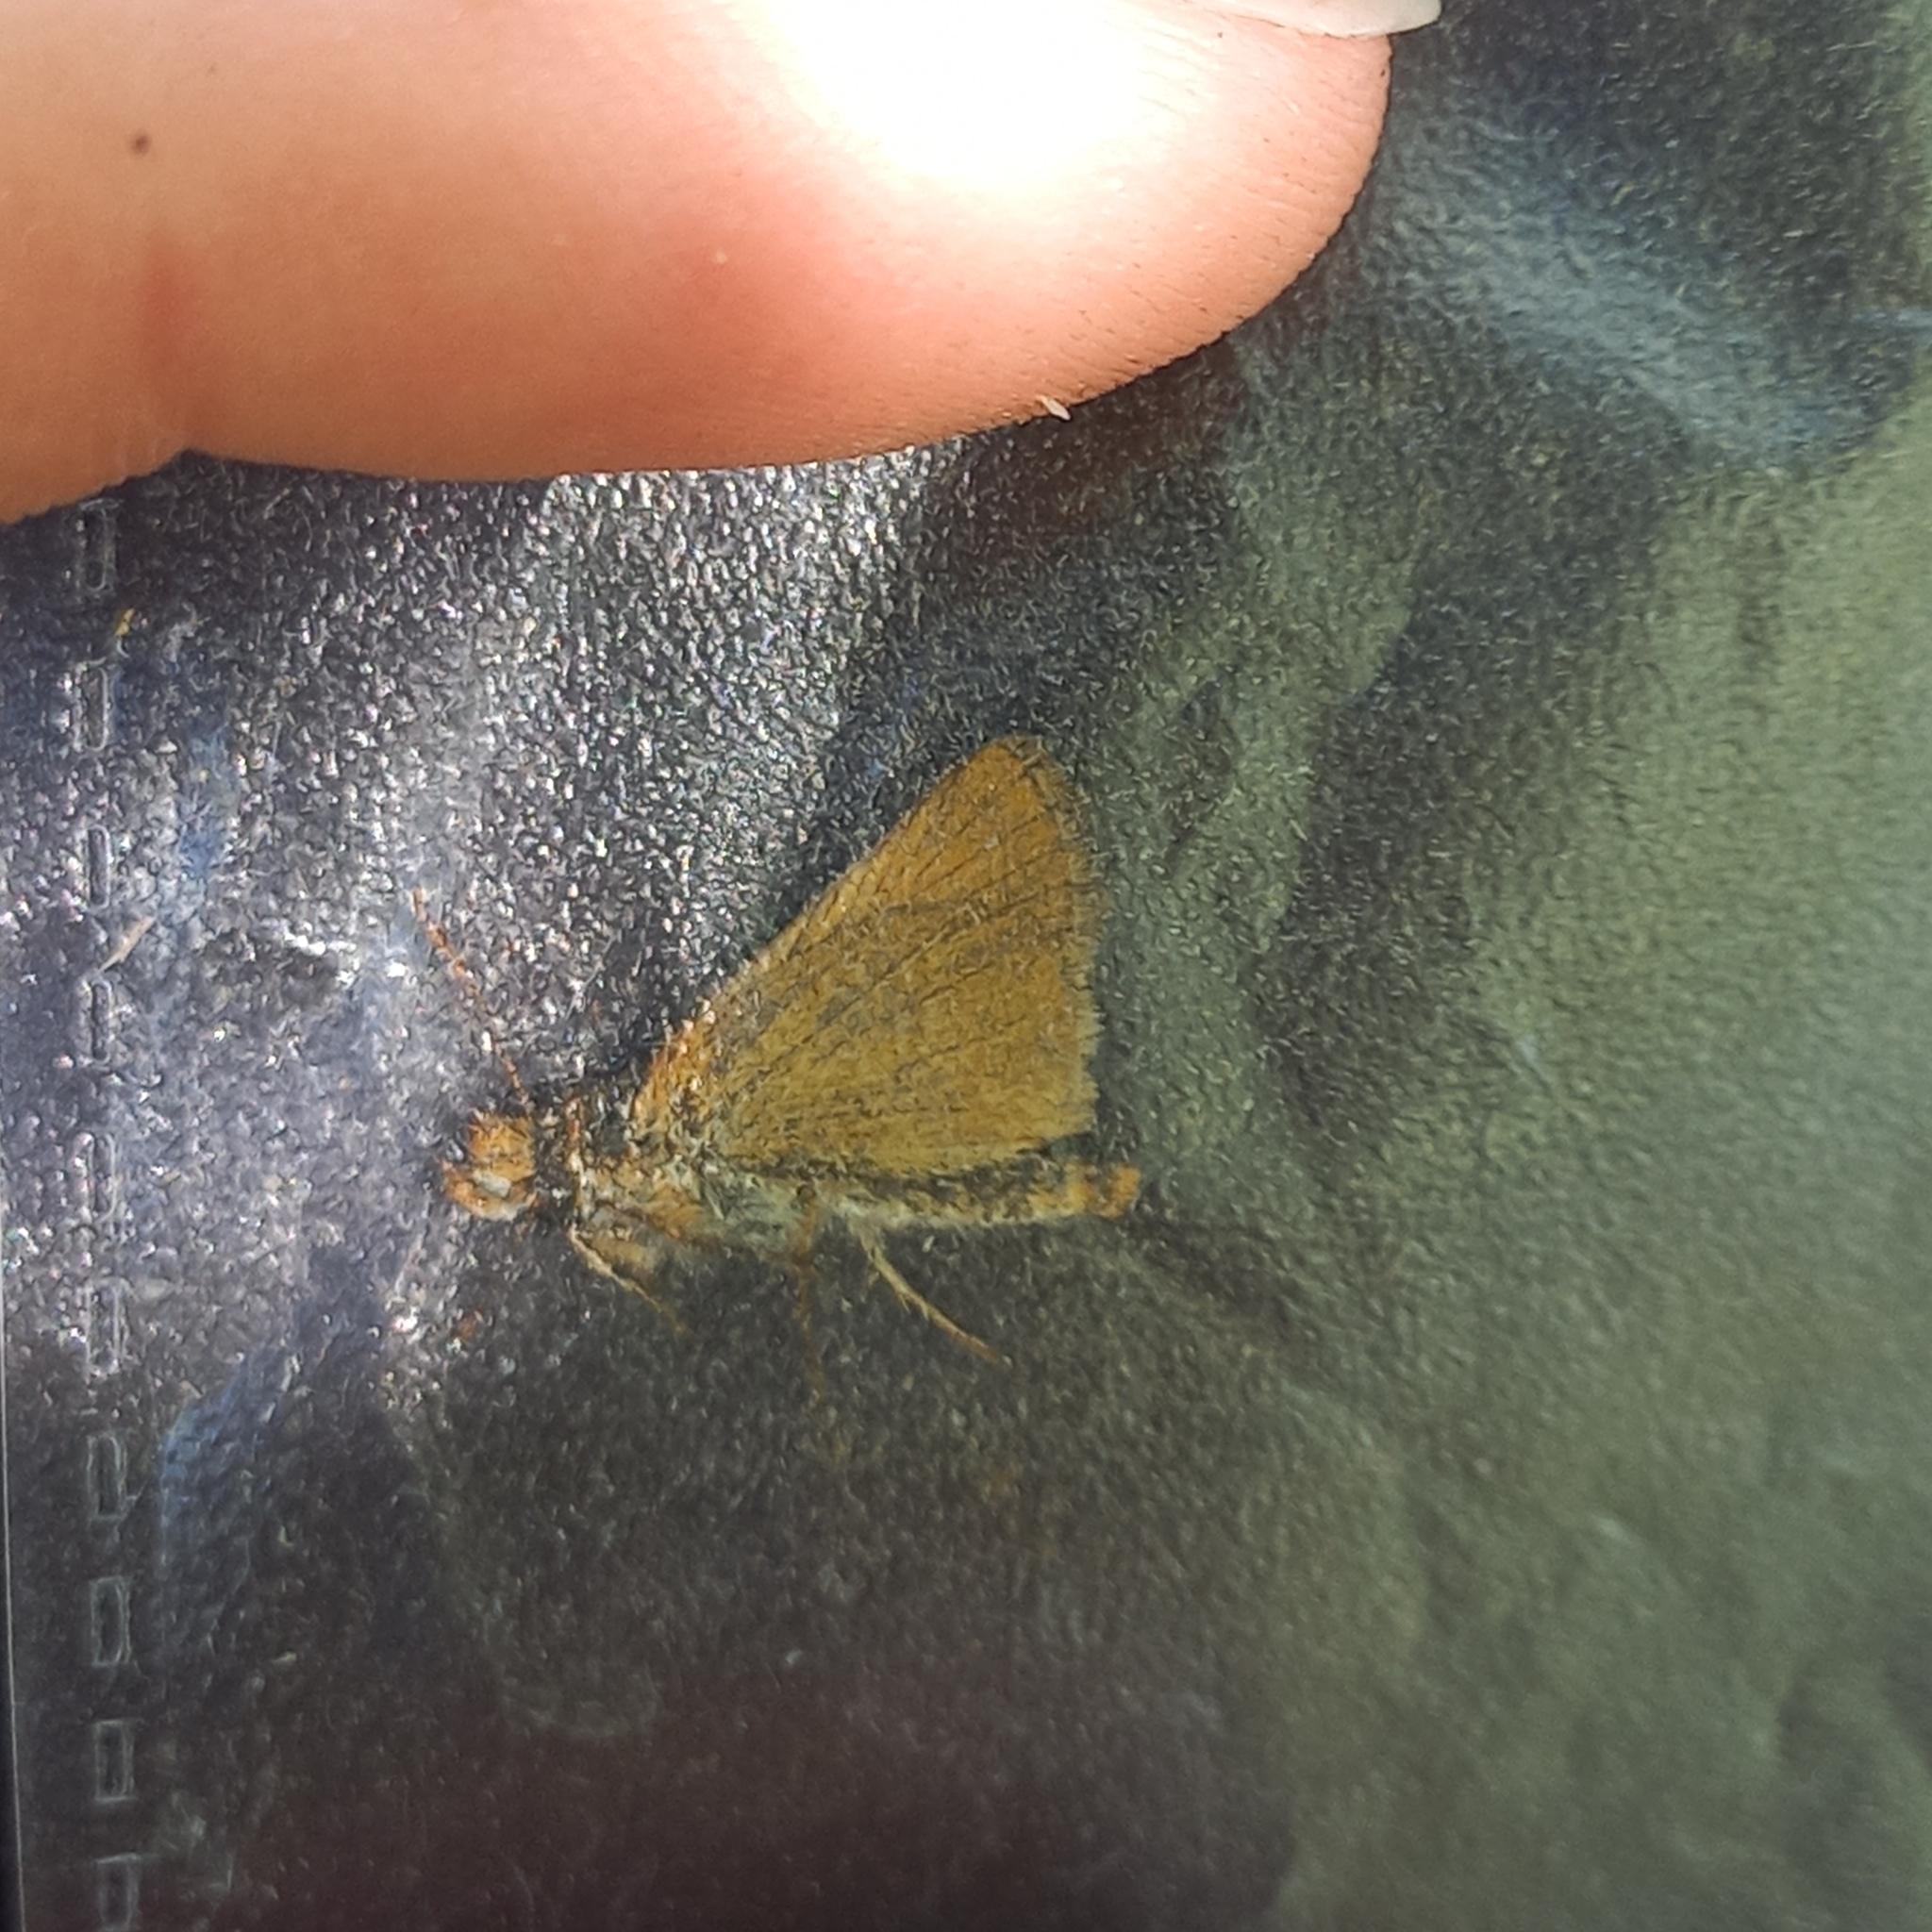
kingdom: Animalia
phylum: Arthropoda
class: Insecta
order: Lepidoptera
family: Hesperiidae
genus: Thymelicus
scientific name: Thymelicus acteon
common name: Lulworth skipper
